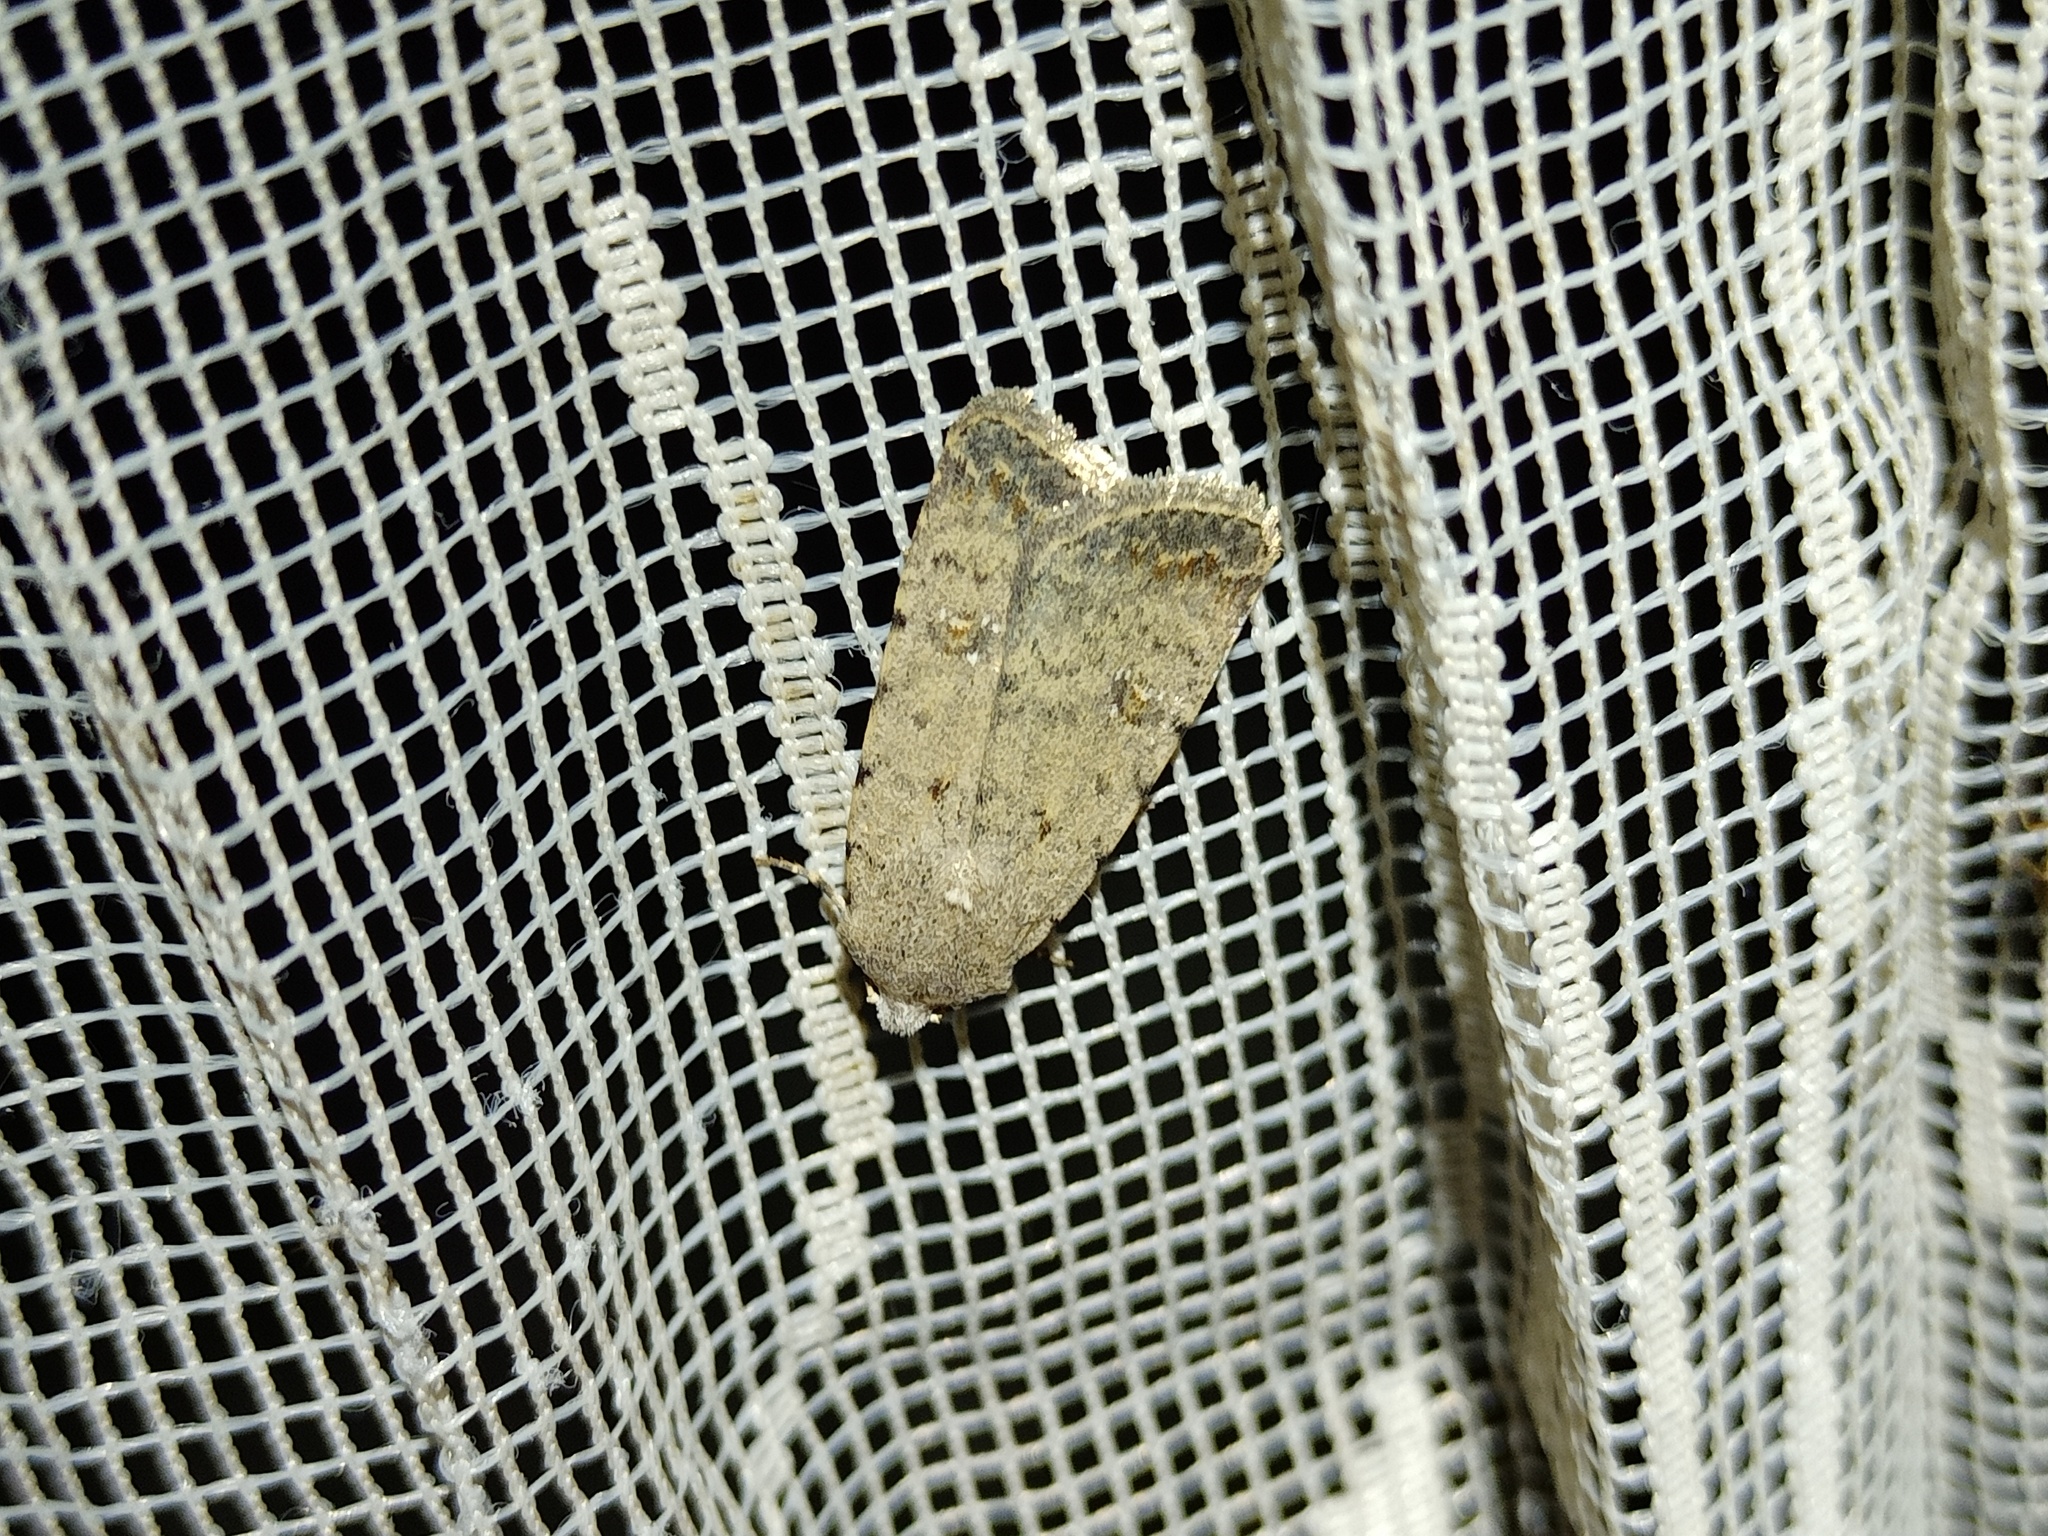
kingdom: Animalia
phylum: Arthropoda
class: Insecta
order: Lepidoptera
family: Noctuidae
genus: Caradrina
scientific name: Caradrina clavipalpis
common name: Pale mottled willow
